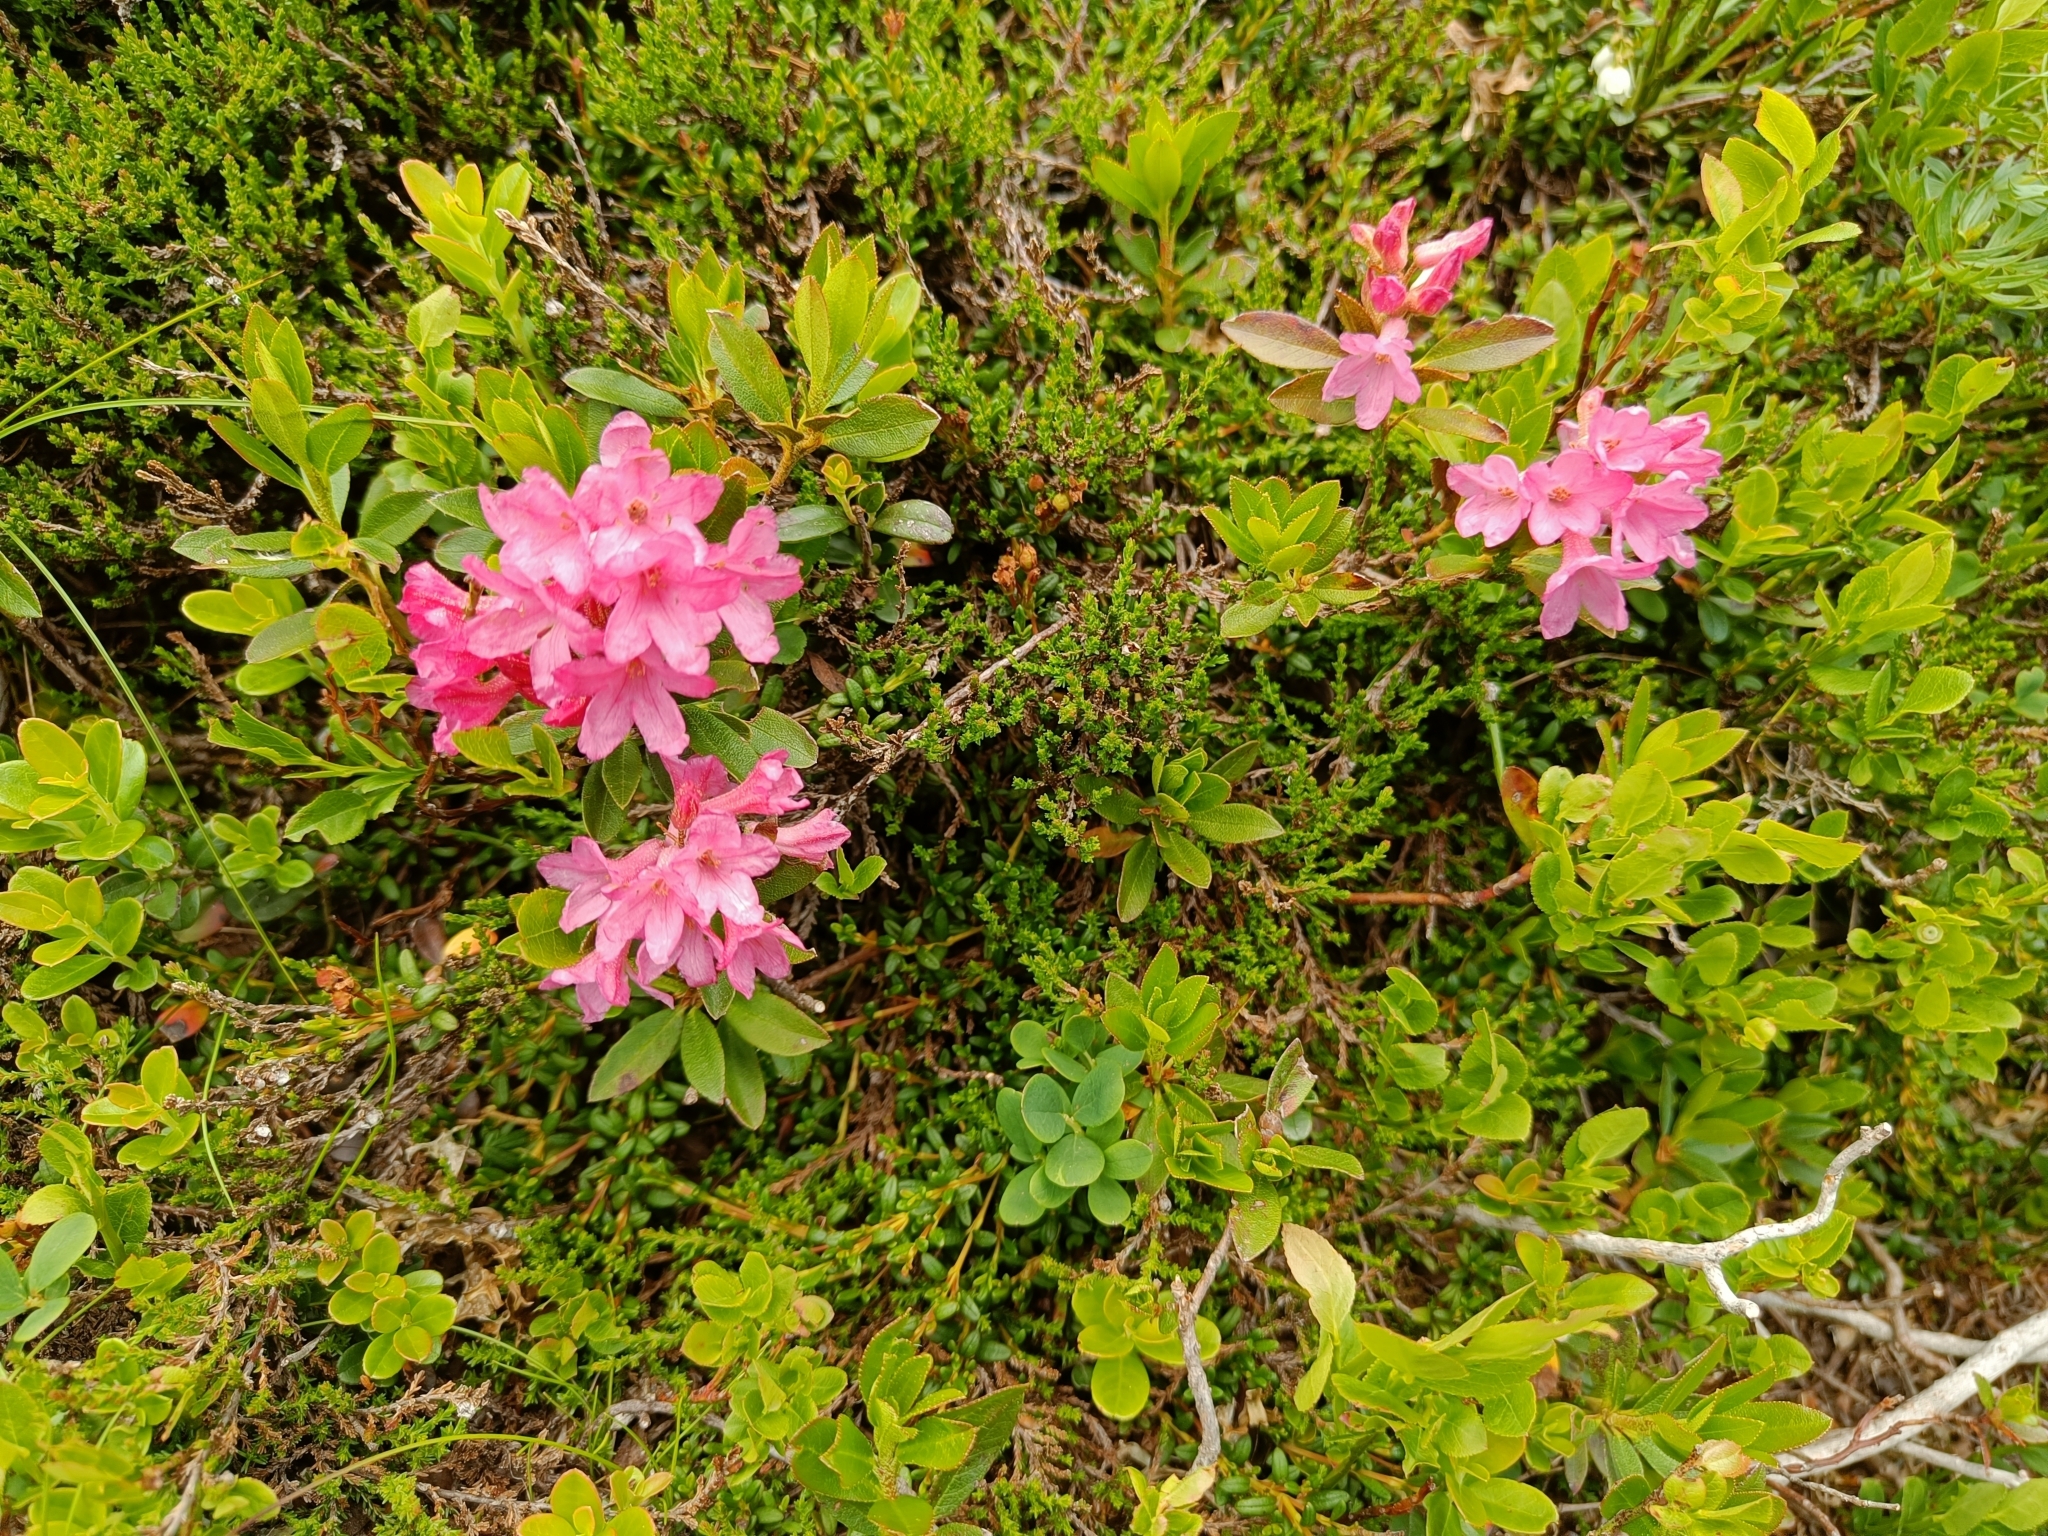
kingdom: Plantae
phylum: Tracheophyta
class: Magnoliopsida
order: Ericales
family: Ericaceae
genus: Rhododendron
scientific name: Rhododendron ferrugineum
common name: Alpenrose
